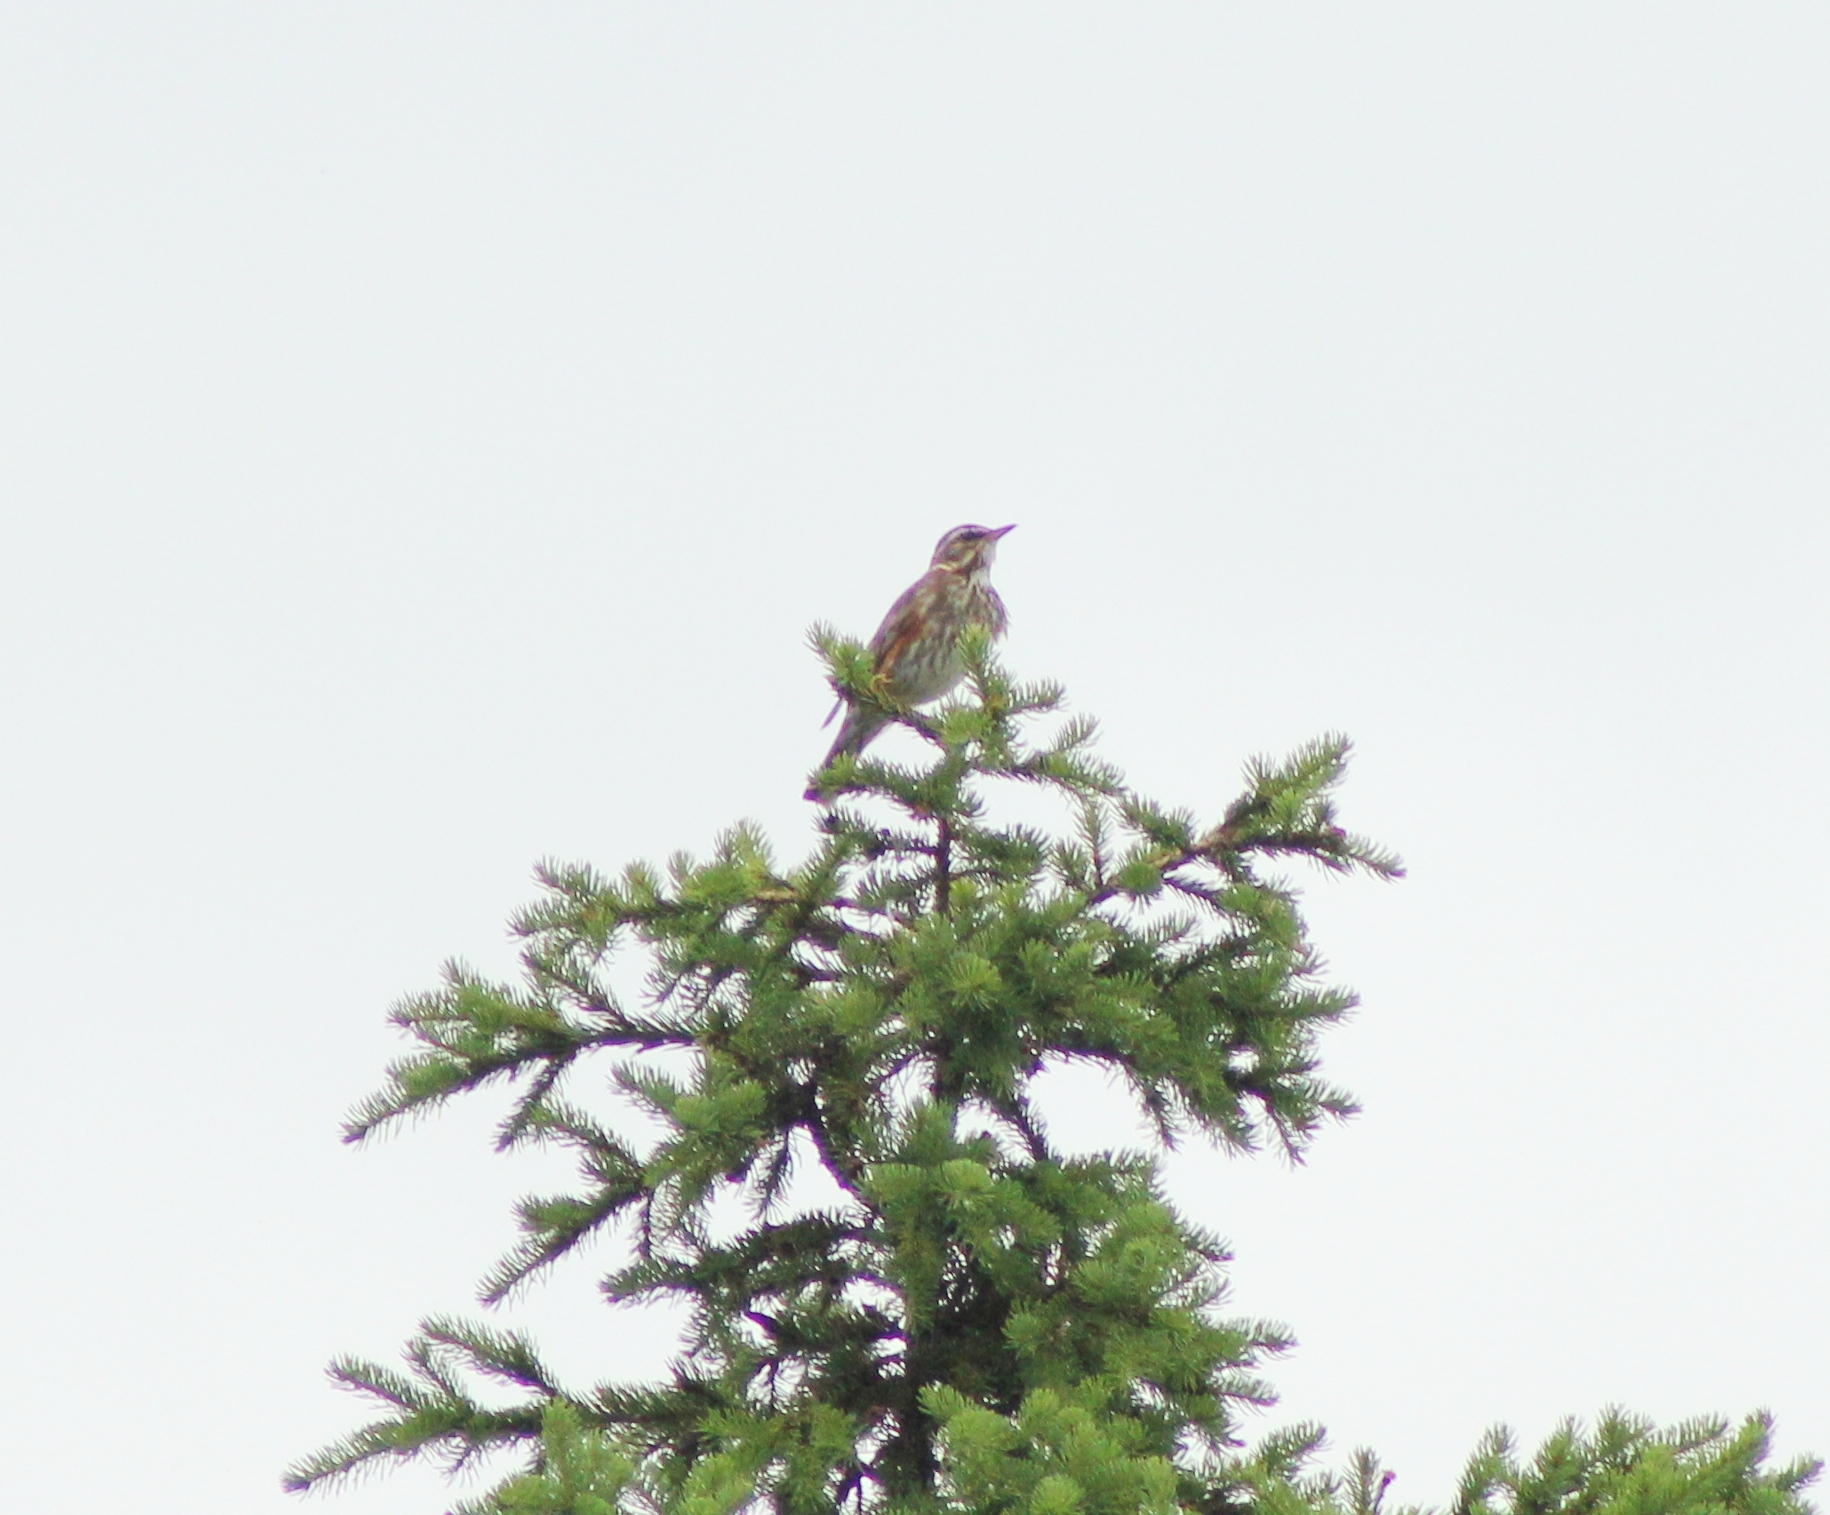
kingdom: Animalia
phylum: Chordata
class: Aves
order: Passeriformes
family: Turdidae
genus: Turdus
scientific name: Turdus iliacus
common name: Redwing
